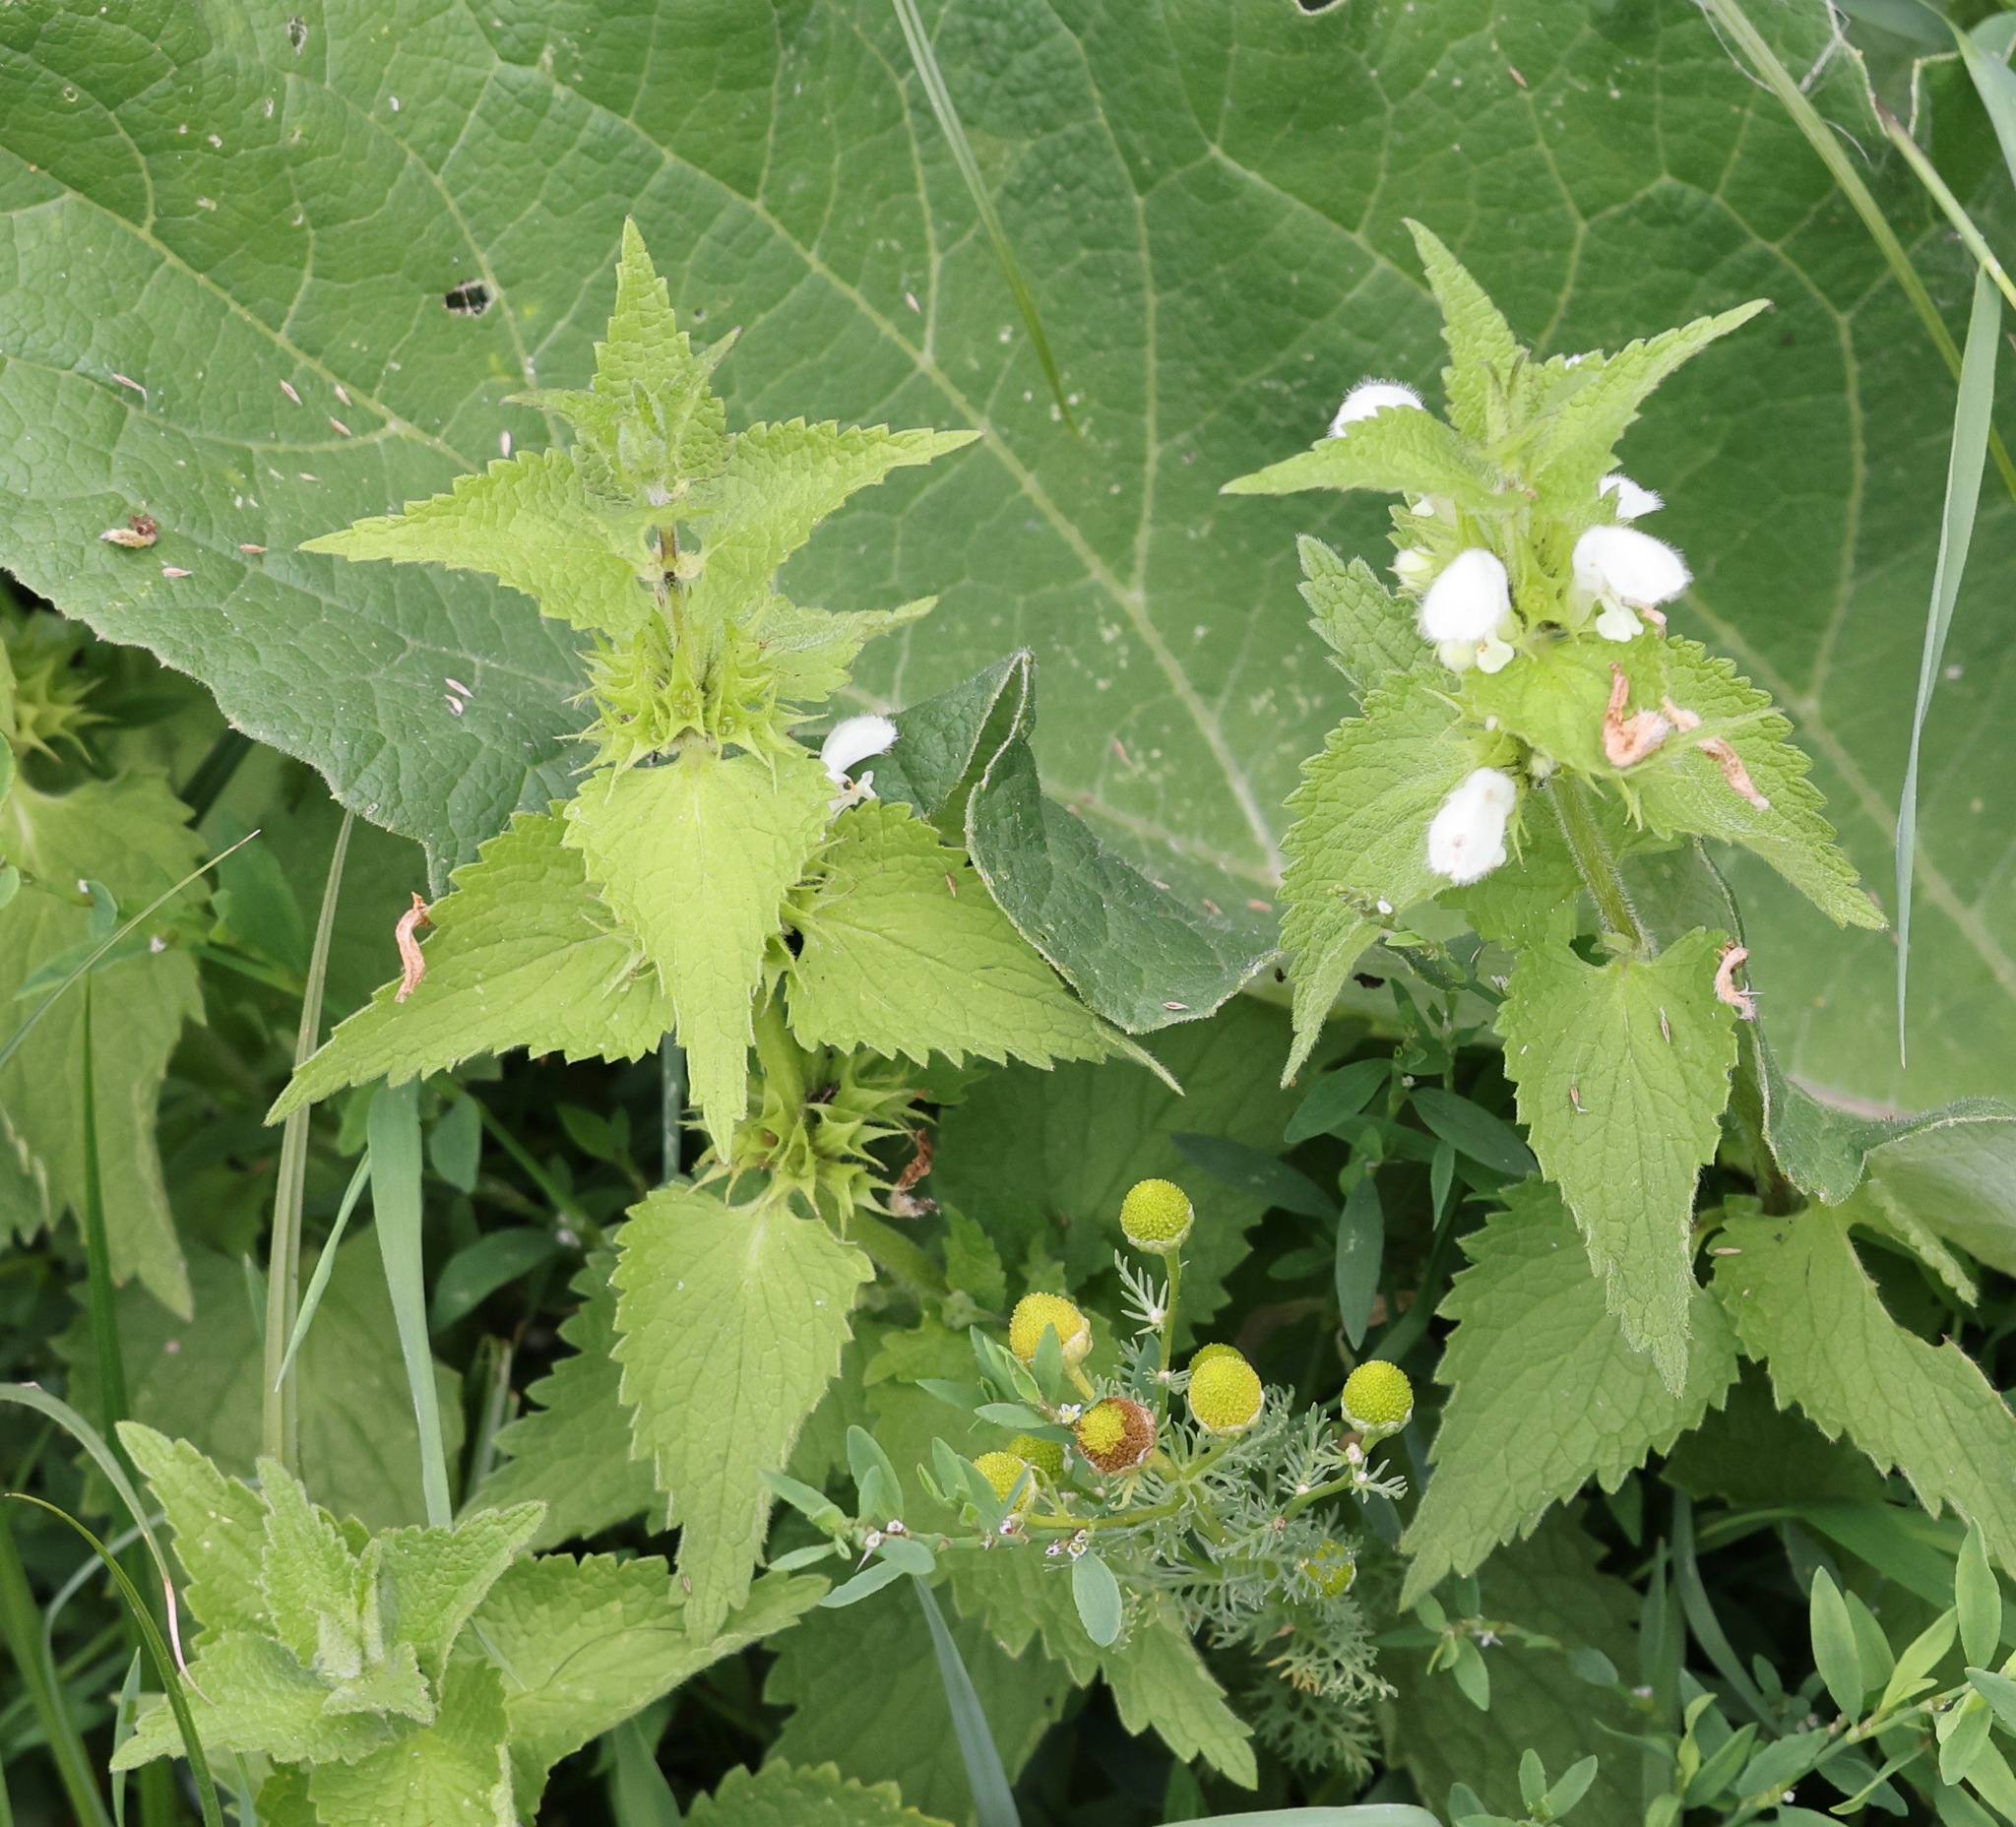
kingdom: Plantae
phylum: Tracheophyta
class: Magnoliopsida
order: Lamiales
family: Lamiaceae
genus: Lamium
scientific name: Lamium album
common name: White dead-nettle
